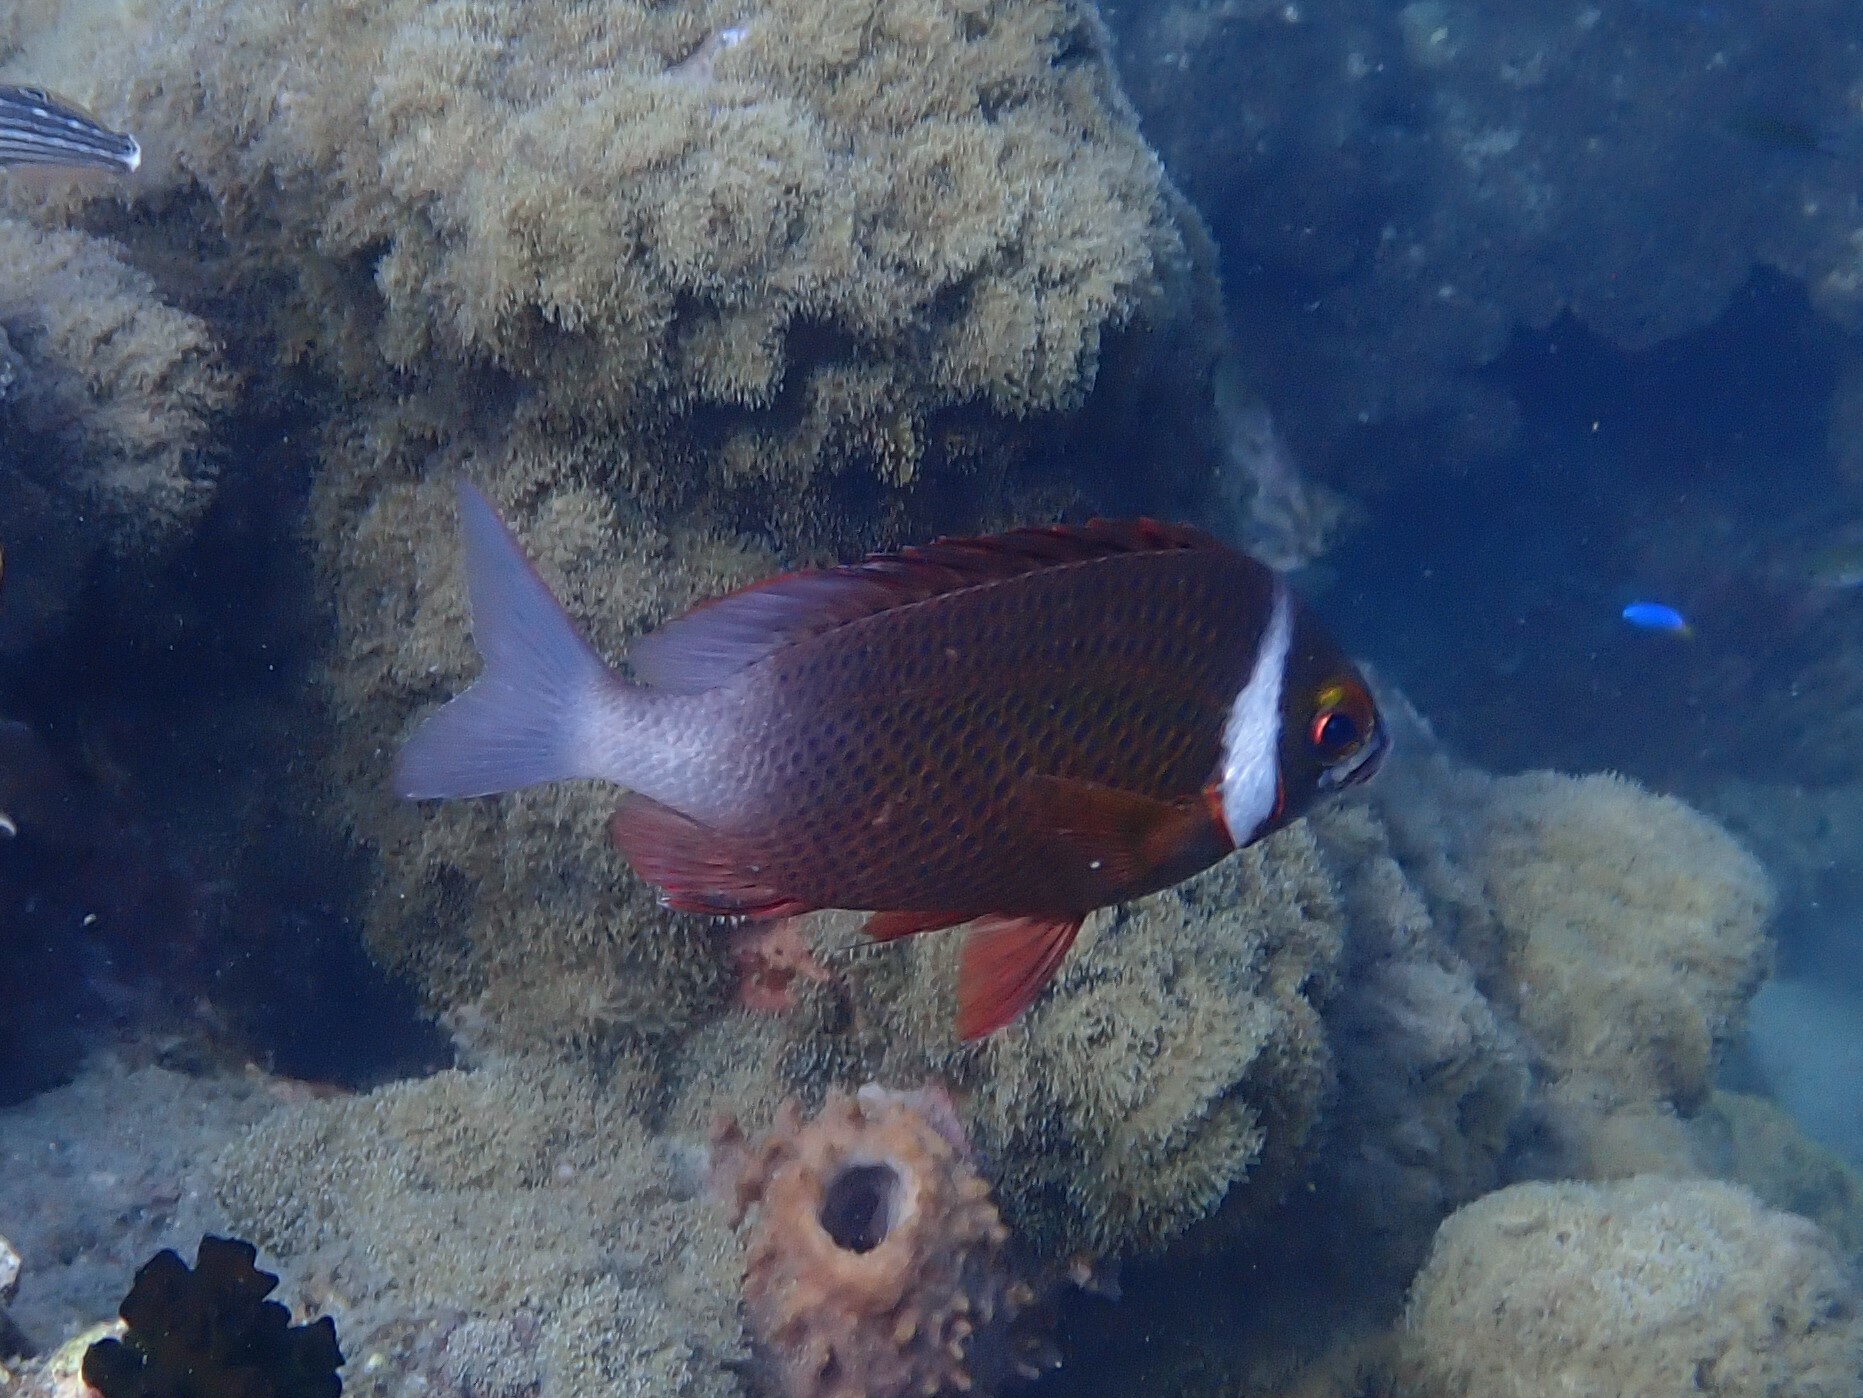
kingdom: Animalia
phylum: Chordata
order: Perciformes
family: Nemipteridae
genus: Scolopsis
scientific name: Scolopsis vosmeri
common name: Whitecheek monocle bream
